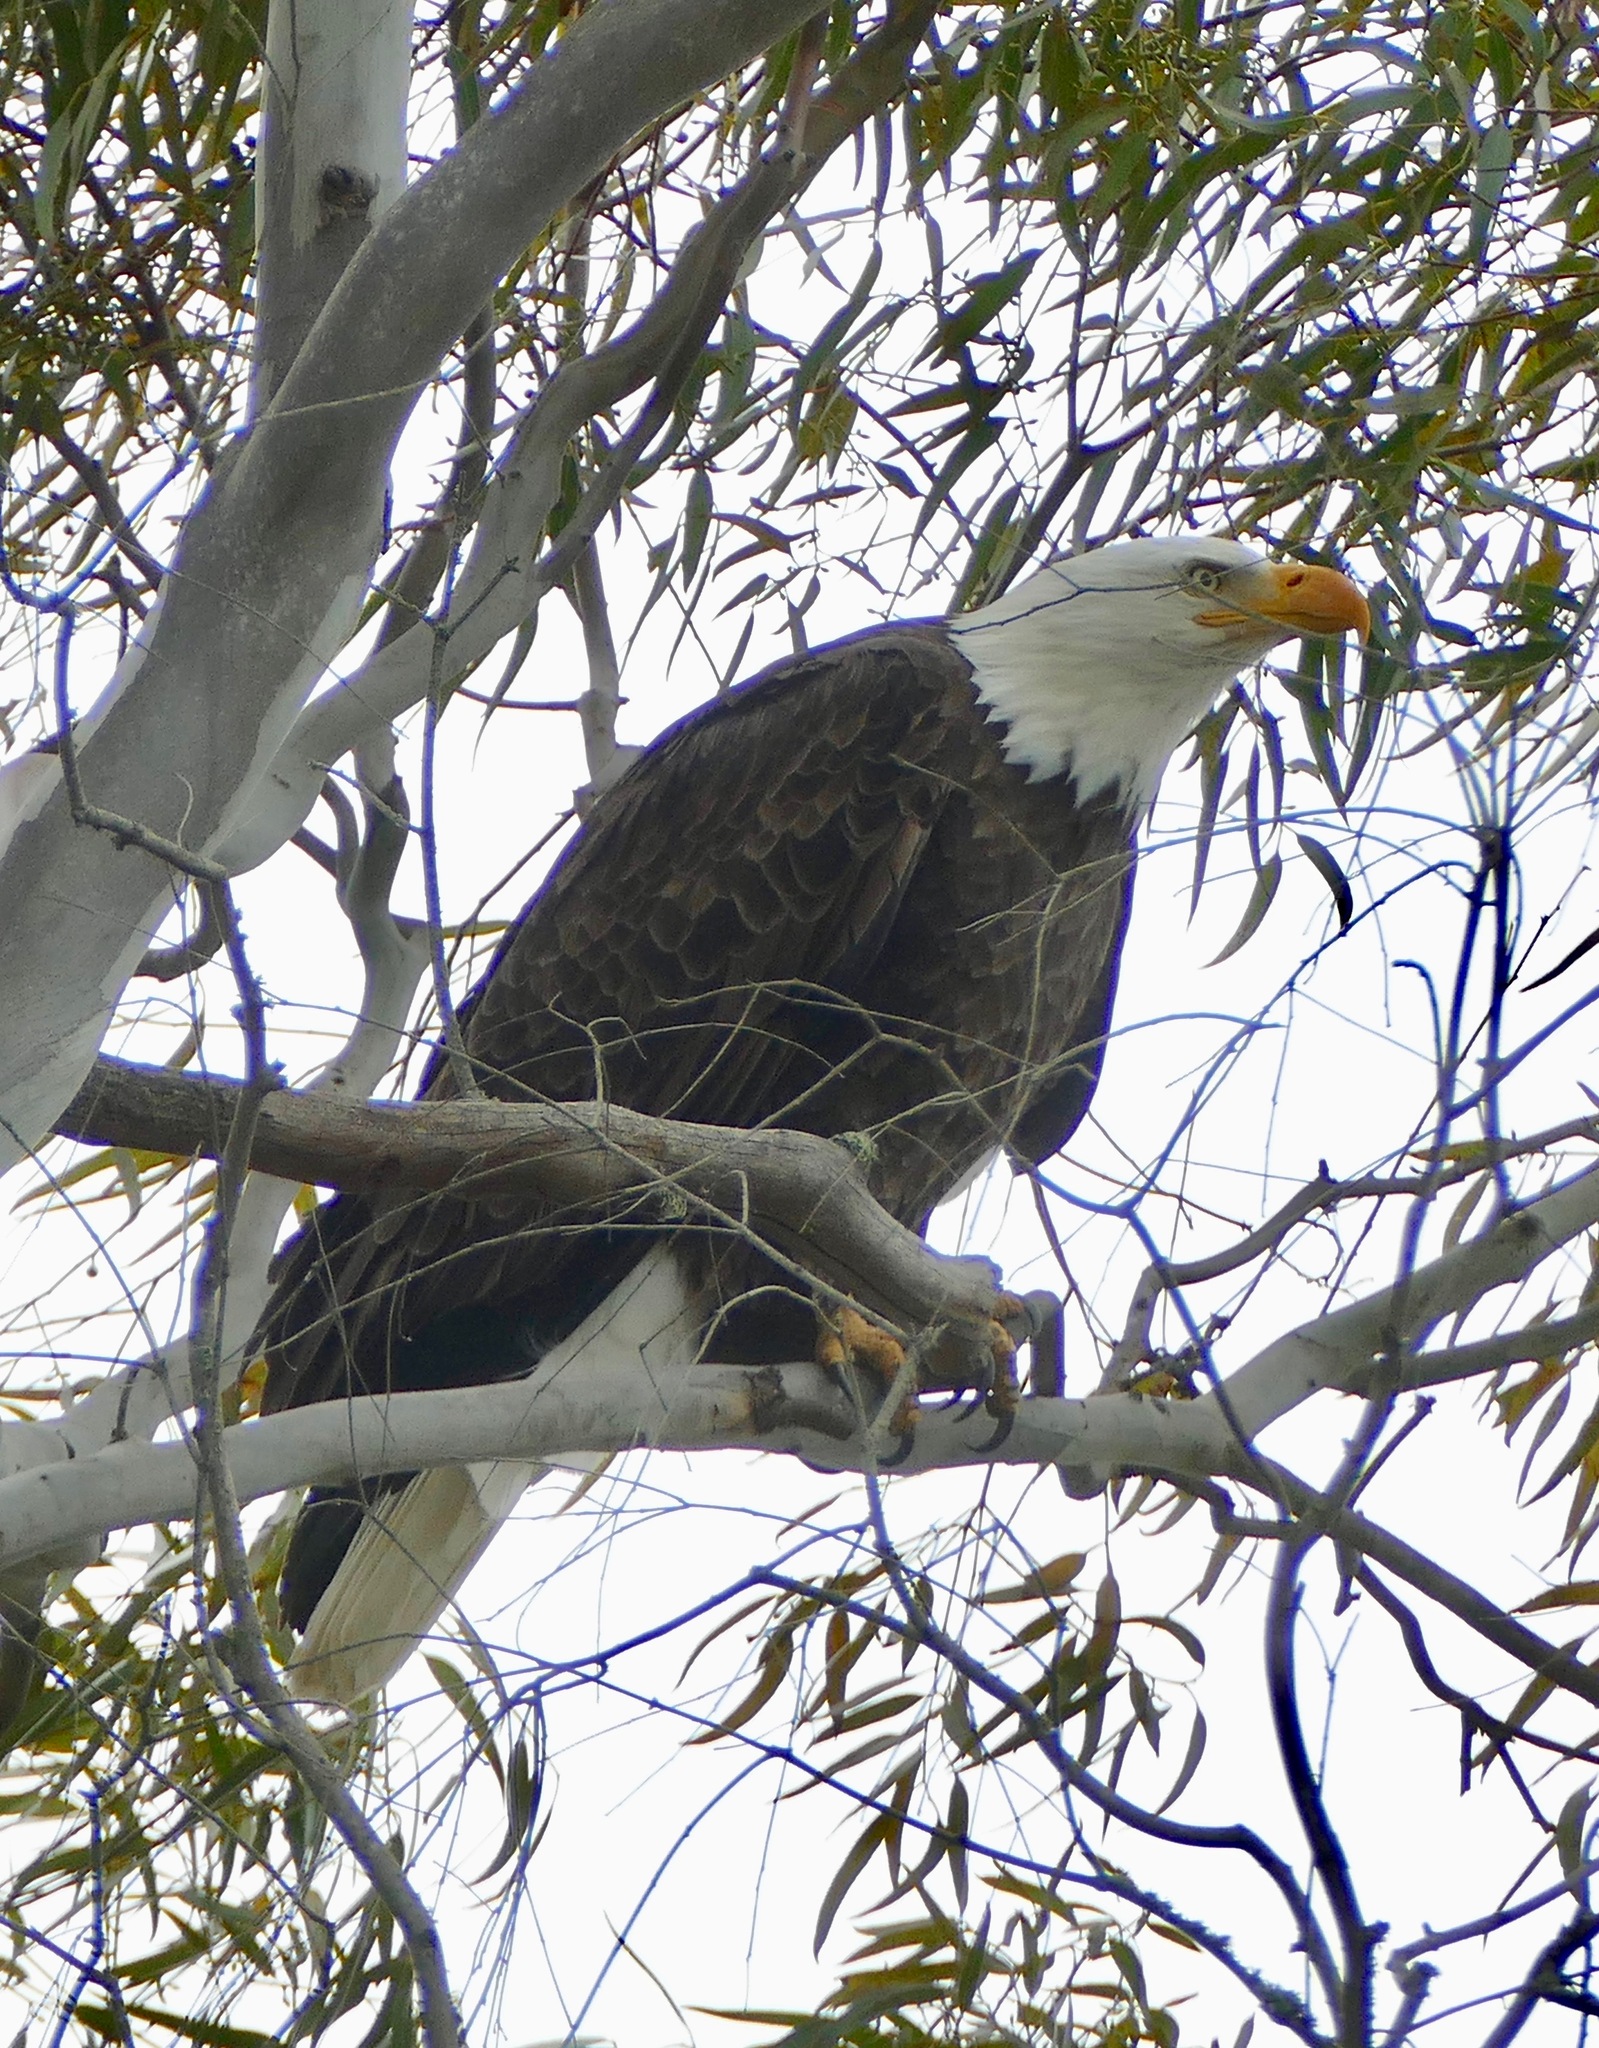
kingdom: Animalia
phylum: Chordata
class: Aves
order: Accipitriformes
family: Accipitridae
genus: Haliaeetus
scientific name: Haliaeetus leucocephalus
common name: Bald eagle
